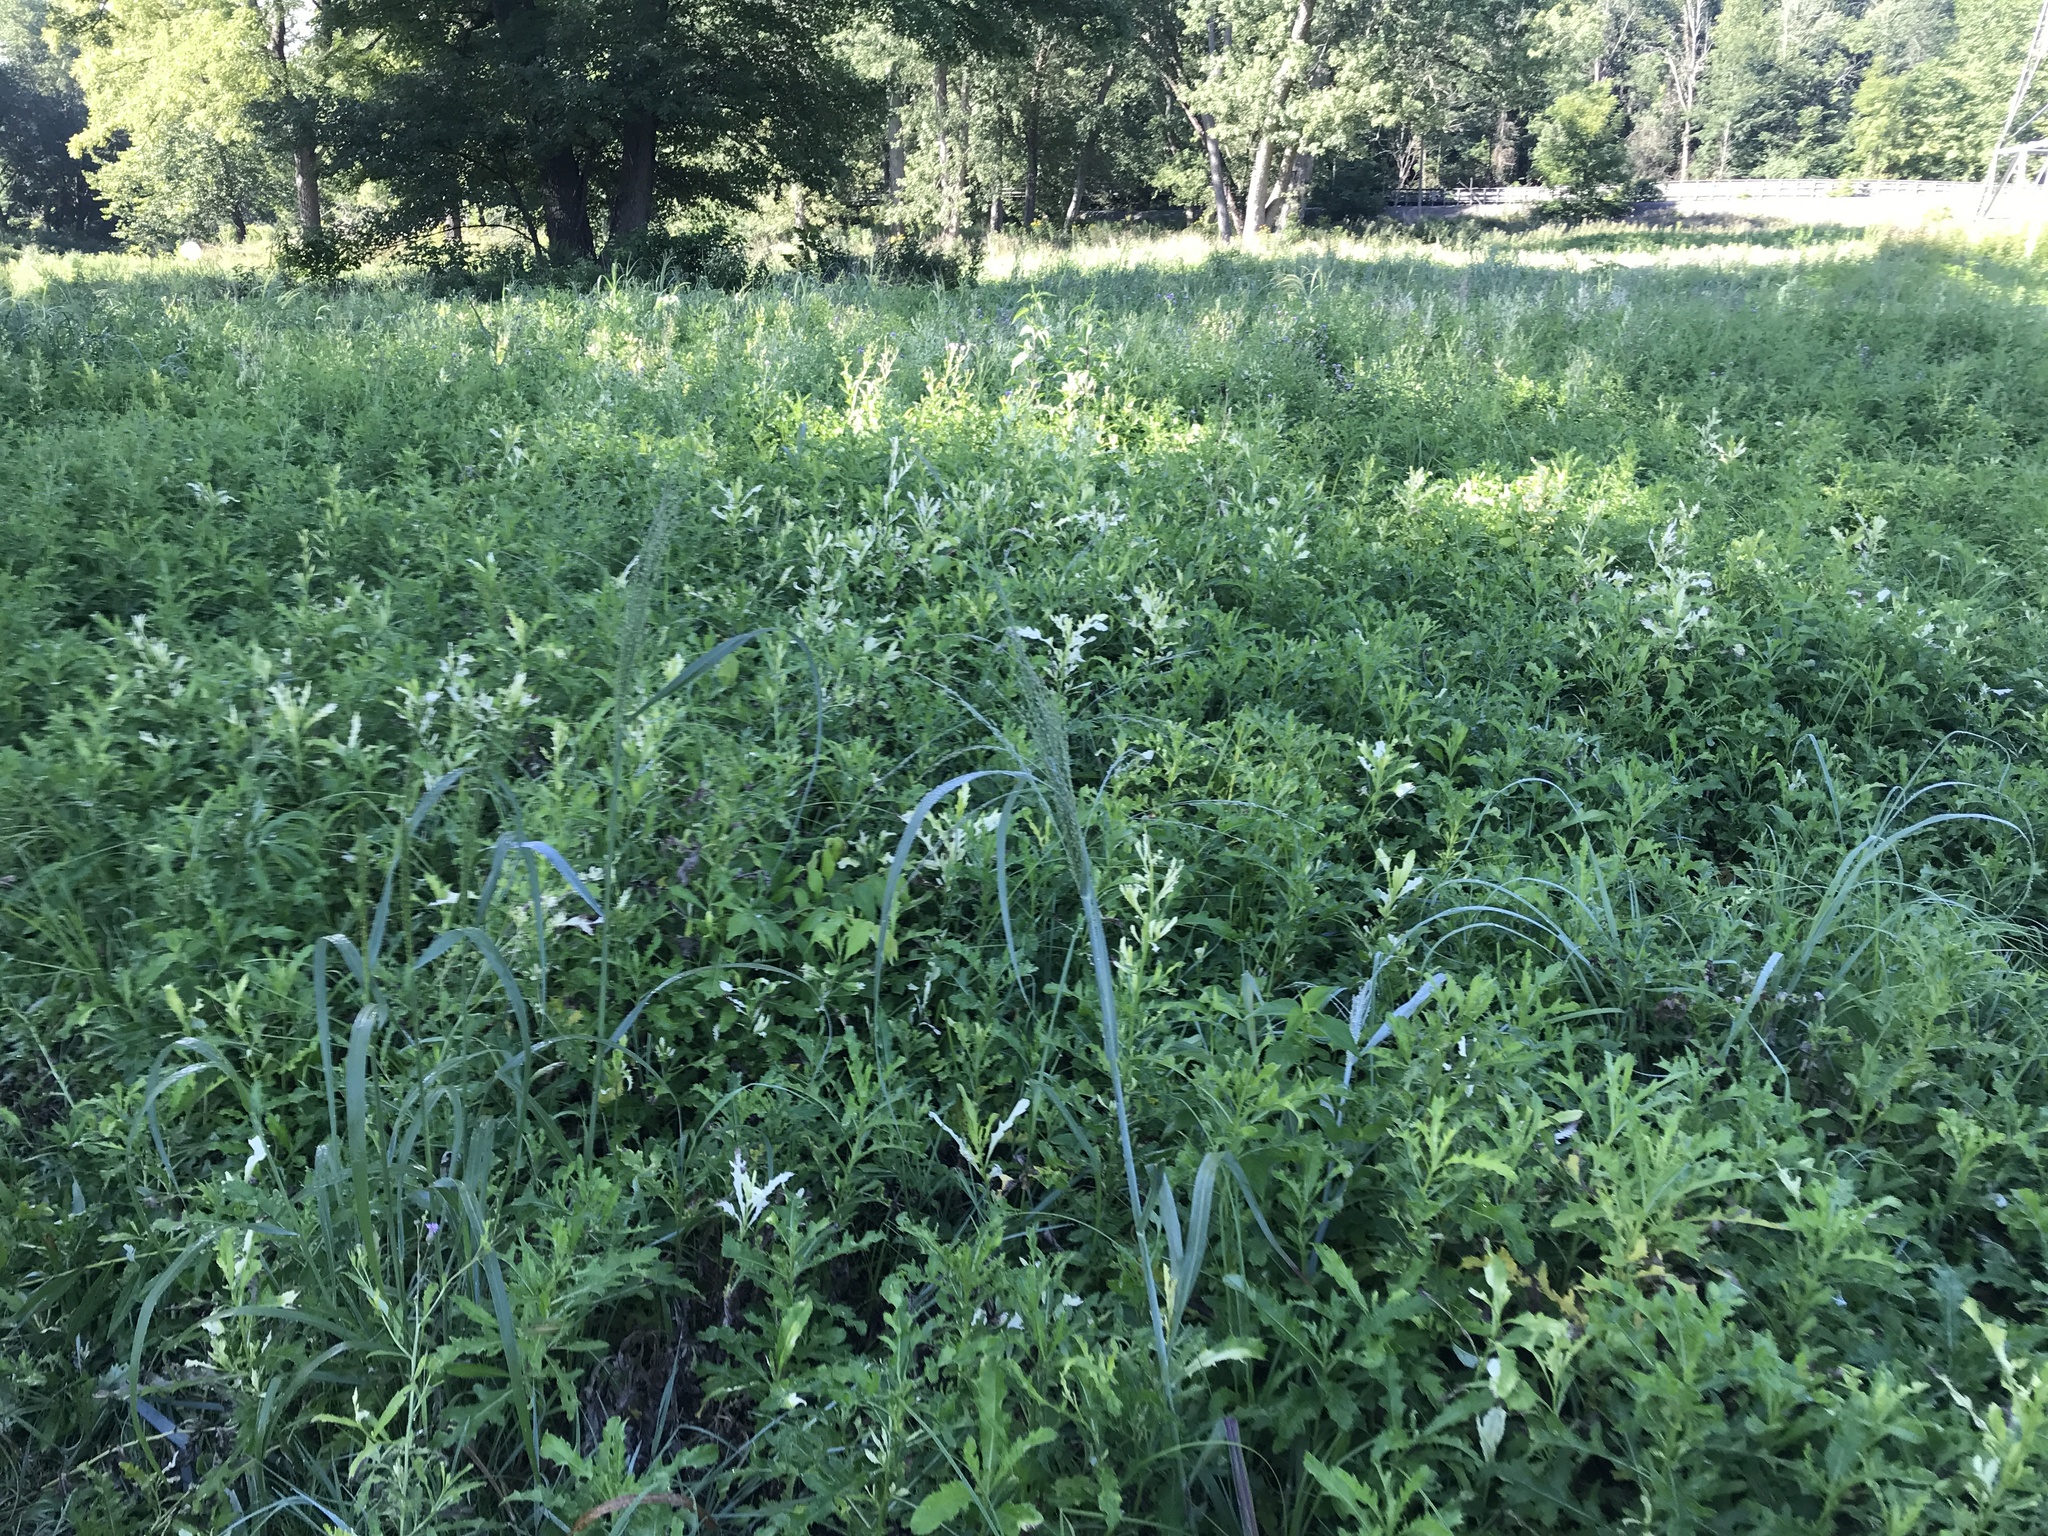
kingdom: Plantae
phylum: Tracheophyta
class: Magnoliopsida
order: Asterales
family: Asteraceae
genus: Cirsium
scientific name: Cirsium arvense
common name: Creeping thistle
